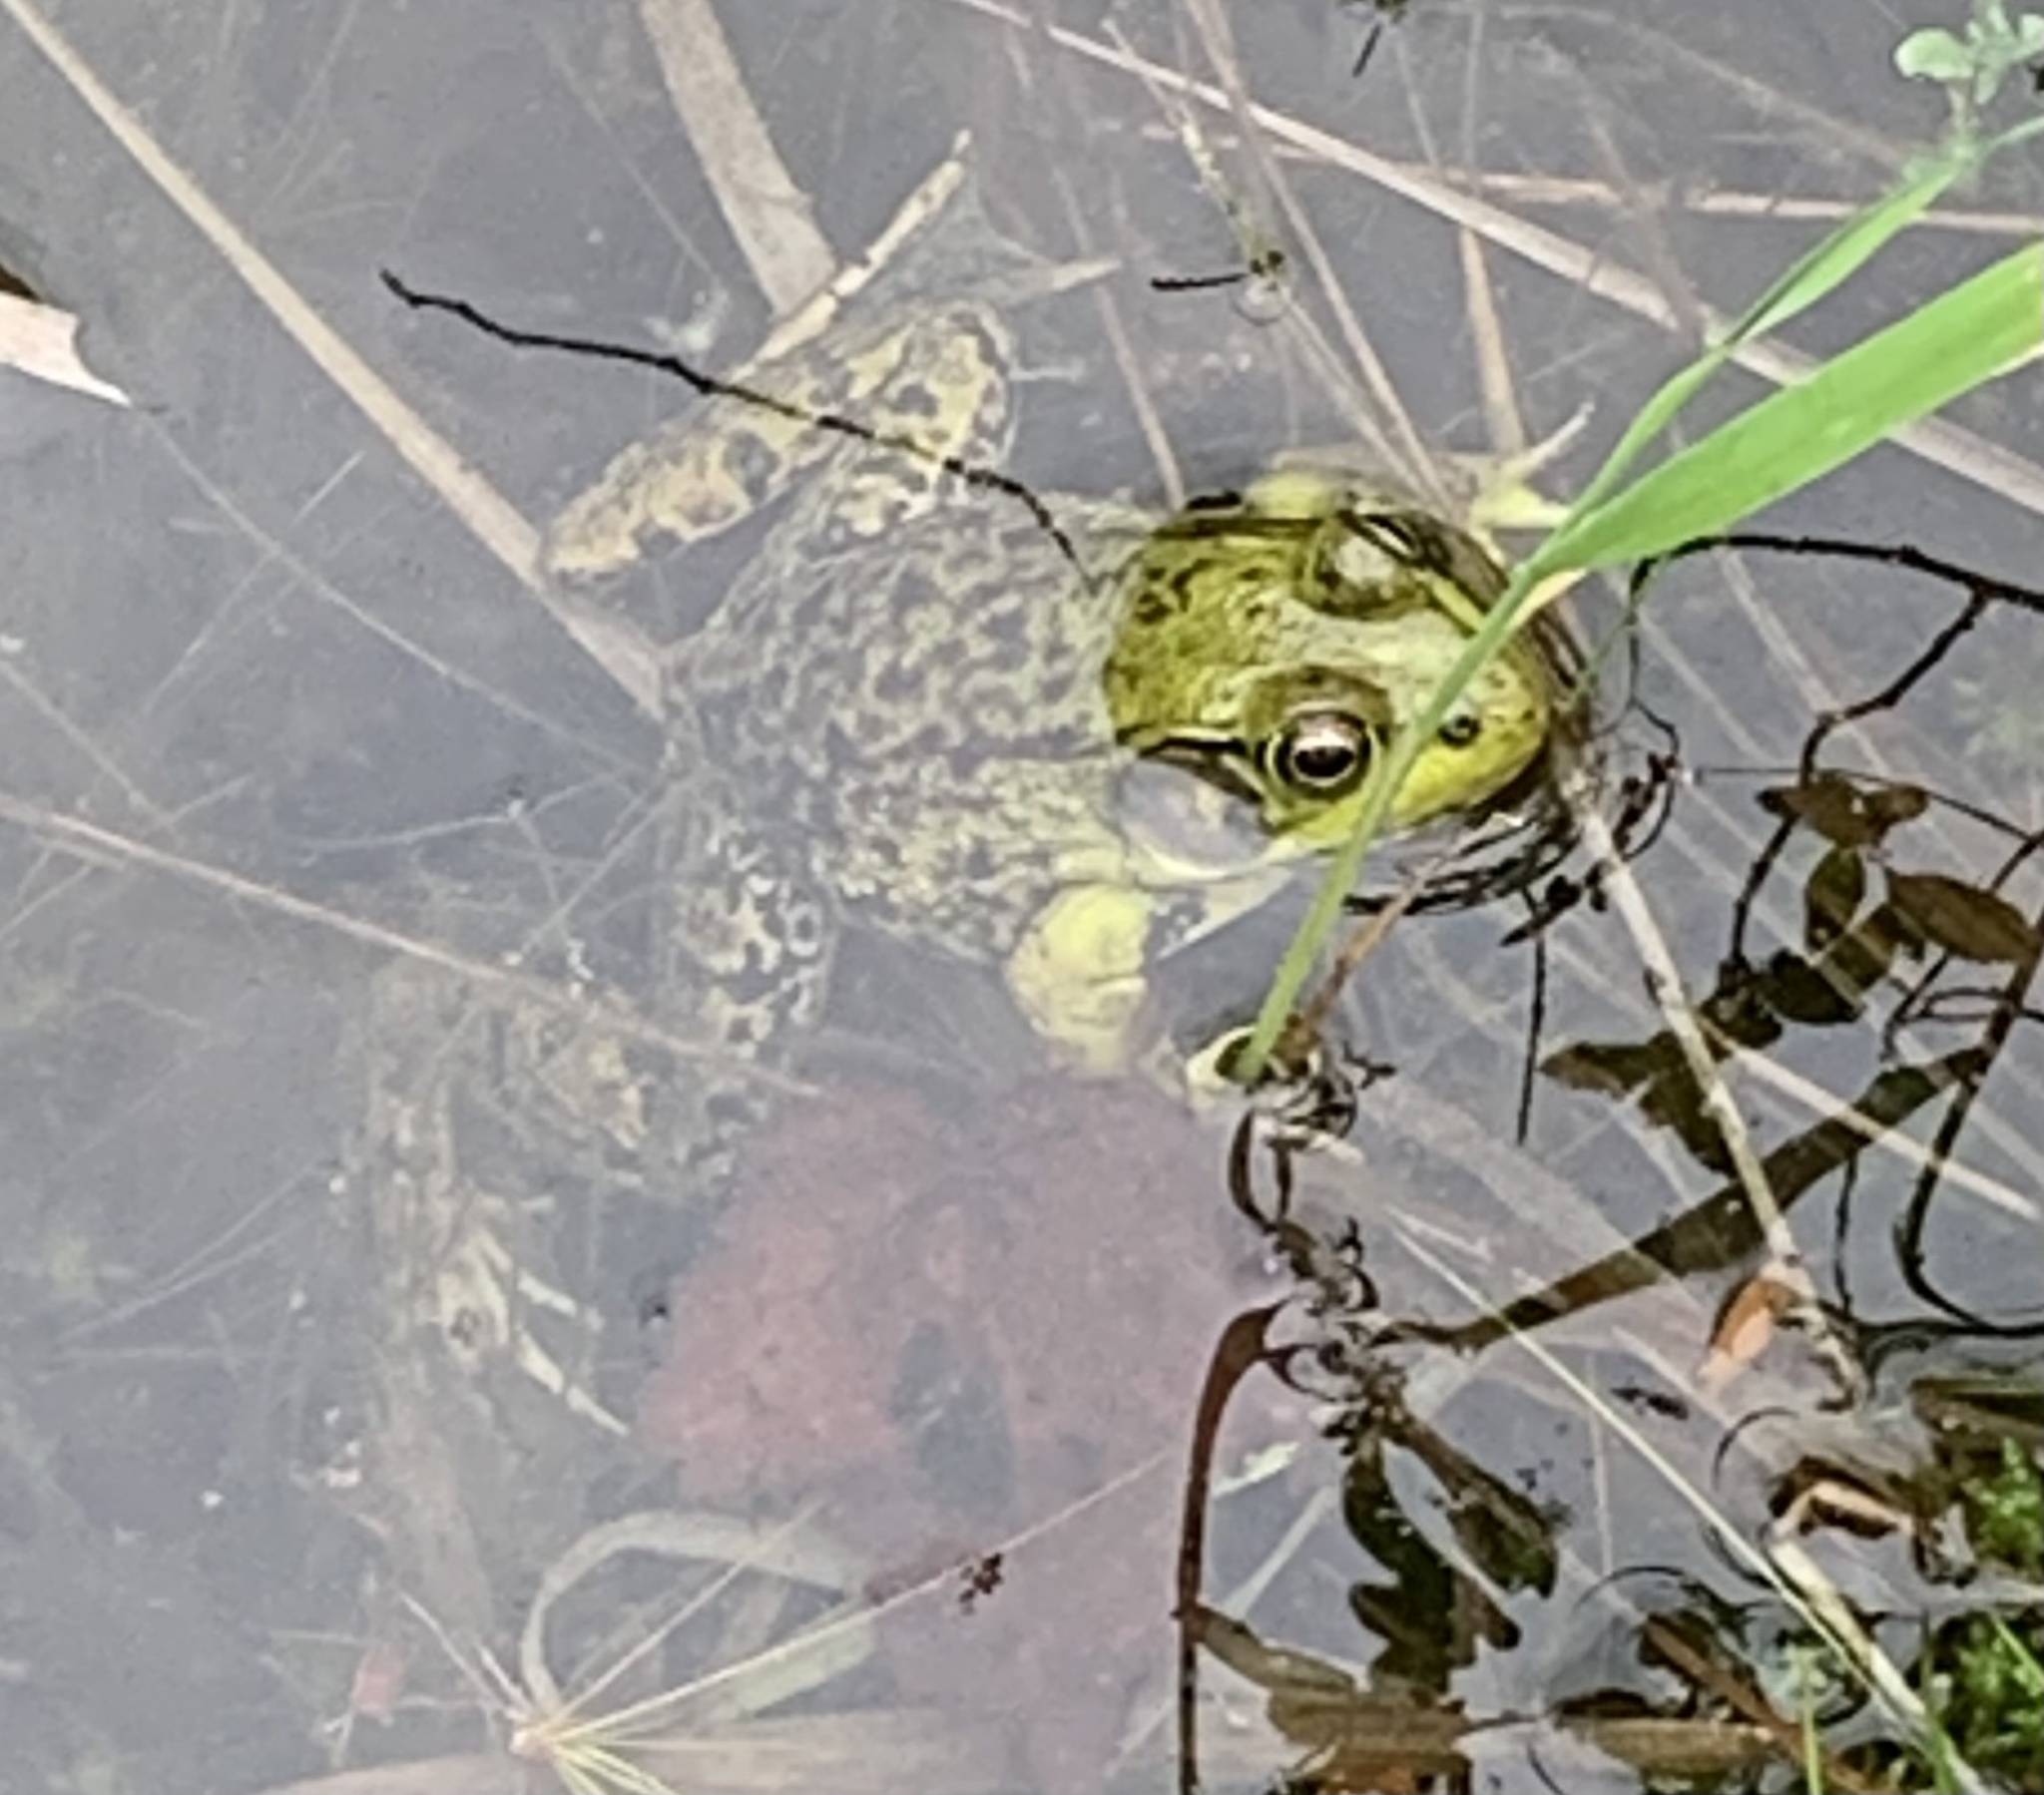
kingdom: Animalia
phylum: Chordata
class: Amphibia
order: Anura
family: Ranidae
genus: Lithobates
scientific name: Lithobates clamitans
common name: Green frog
